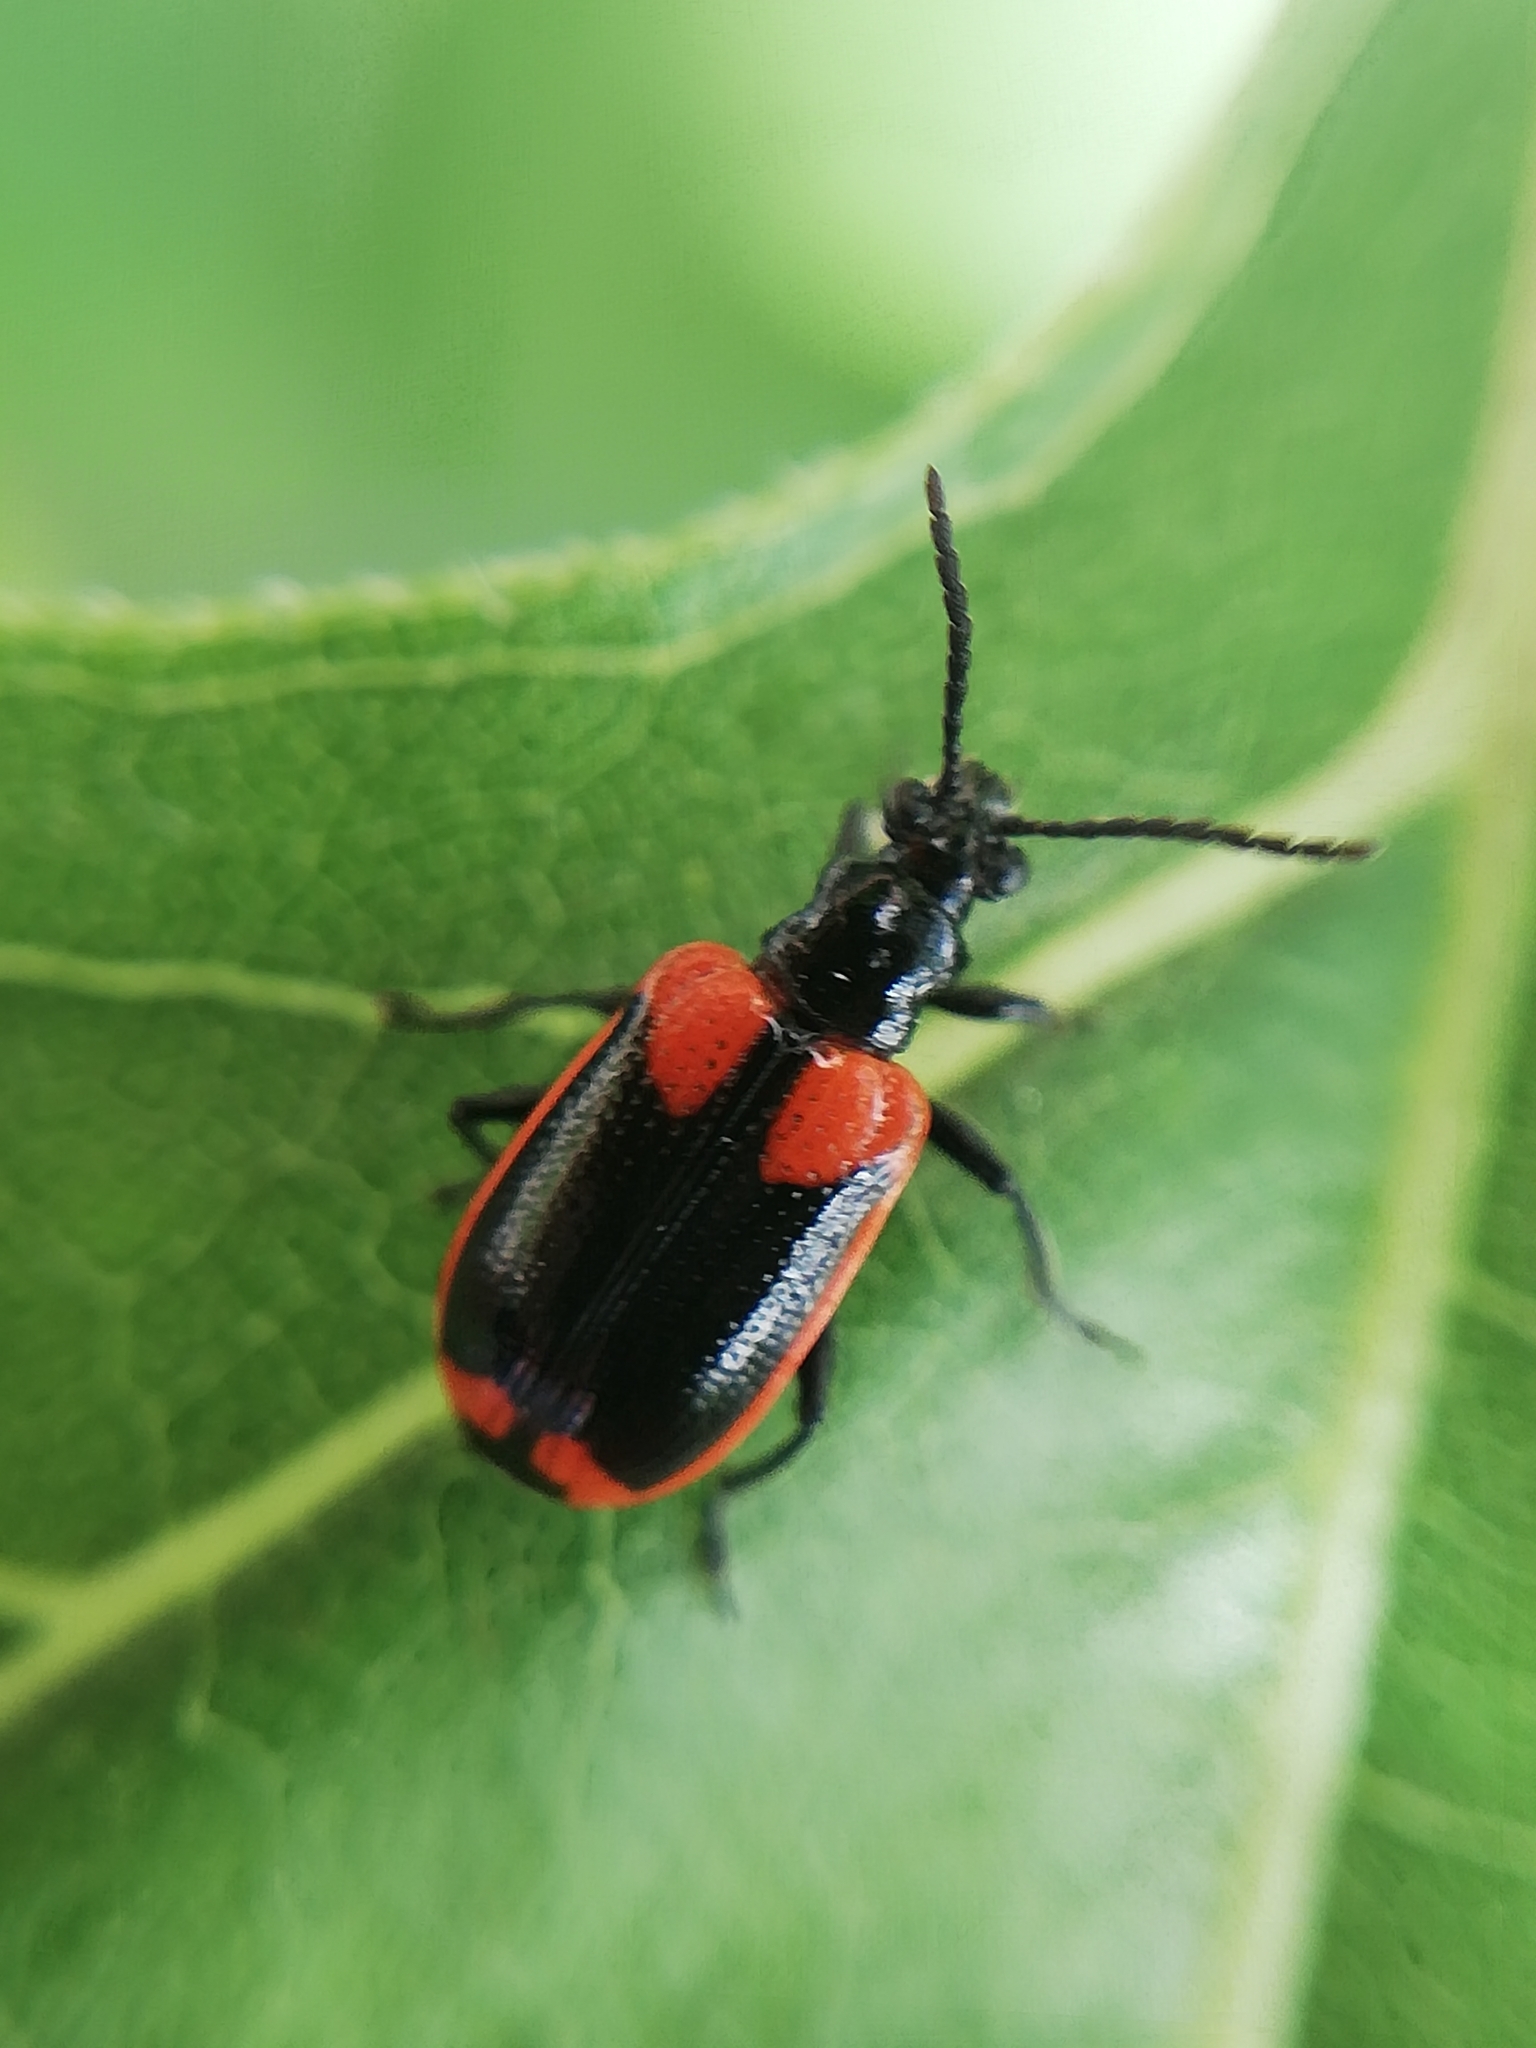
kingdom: Animalia
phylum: Arthropoda
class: Insecta
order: Coleoptera
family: Chrysomelidae
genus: Lema
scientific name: Lema confusa
